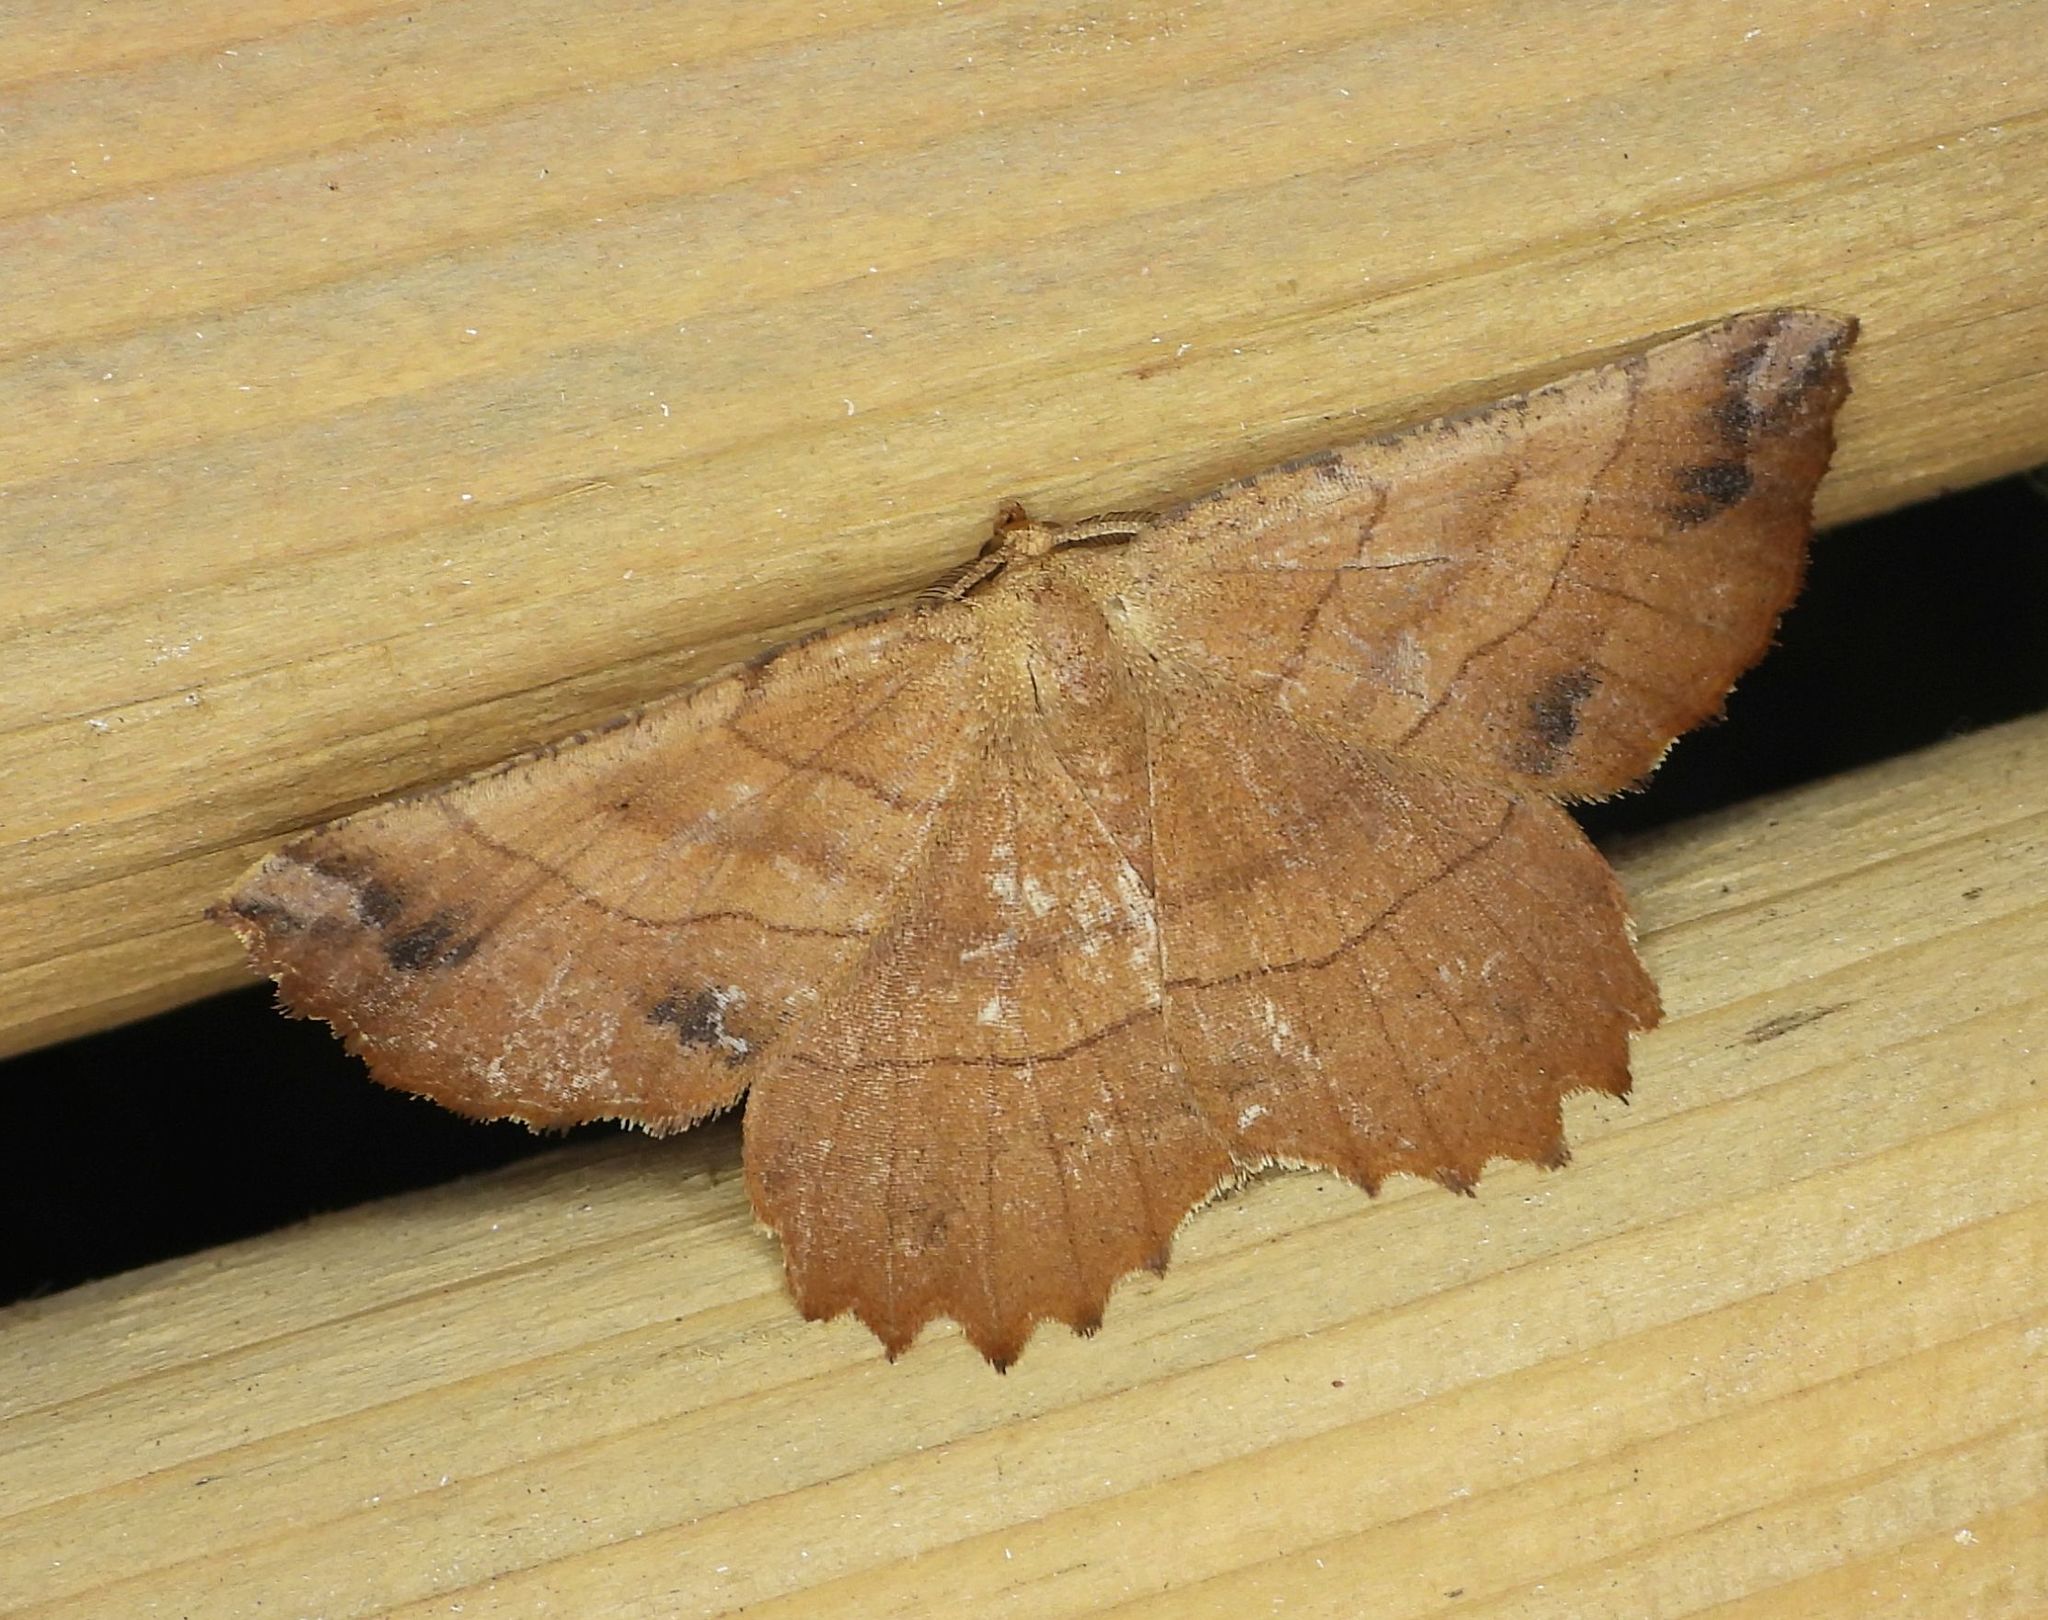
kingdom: Animalia
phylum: Arthropoda
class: Insecta
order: Lepidoptera
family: Geometridae
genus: Euchlaena
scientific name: Euchlaena johnsonaria
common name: Johnson's euchlaena
